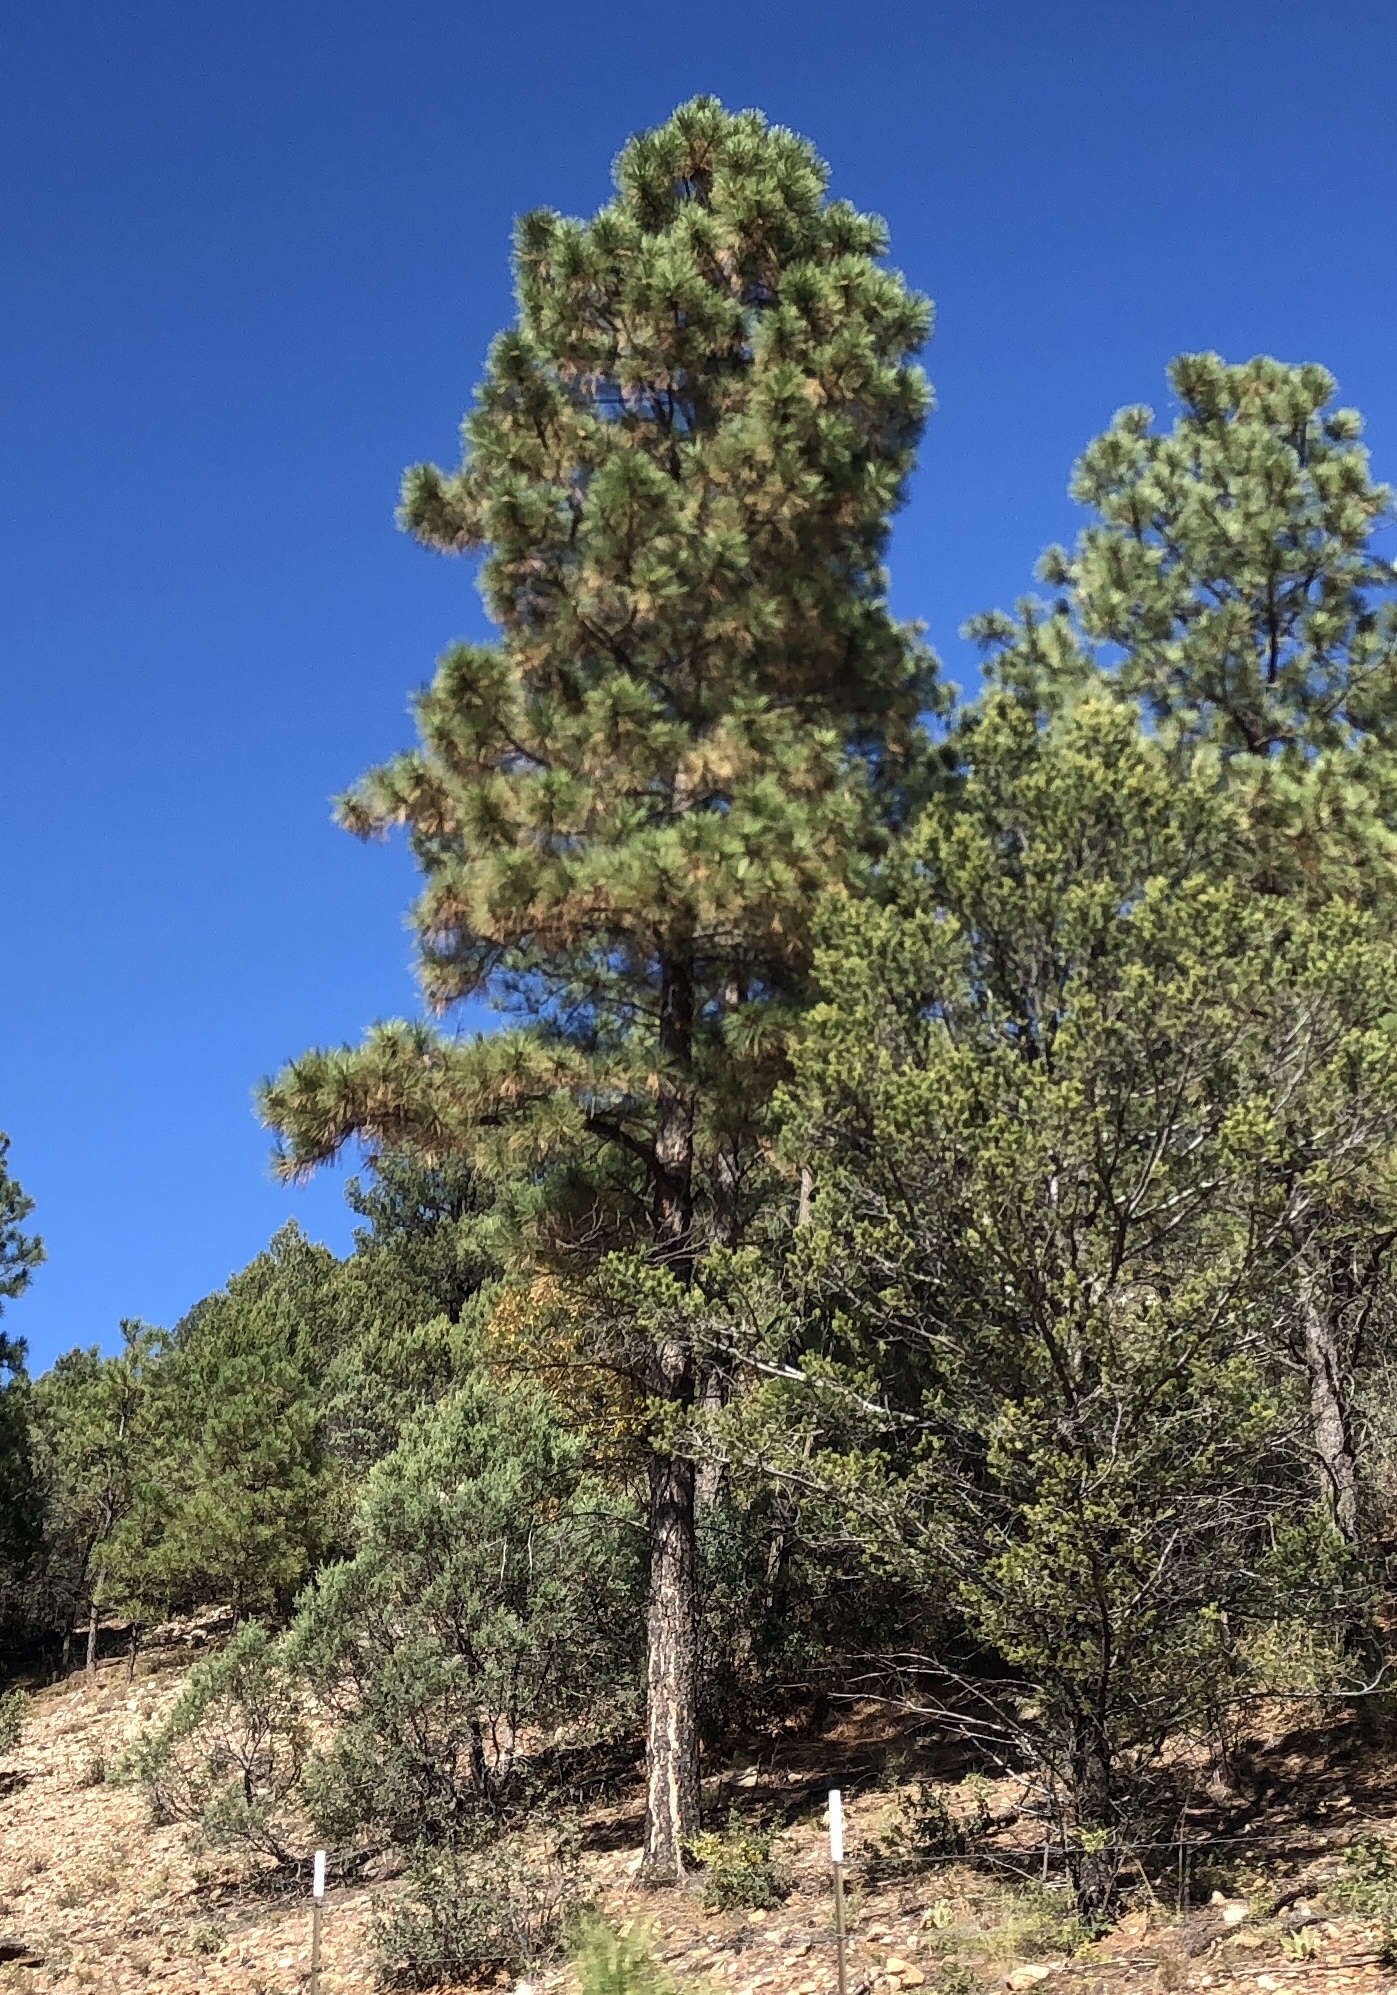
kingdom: Plantae
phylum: Tracheophyta
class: Pinopsida
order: Pinales
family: Pinaceae
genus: Pinus
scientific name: Pinus ponderosa
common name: Western yellow-pine
